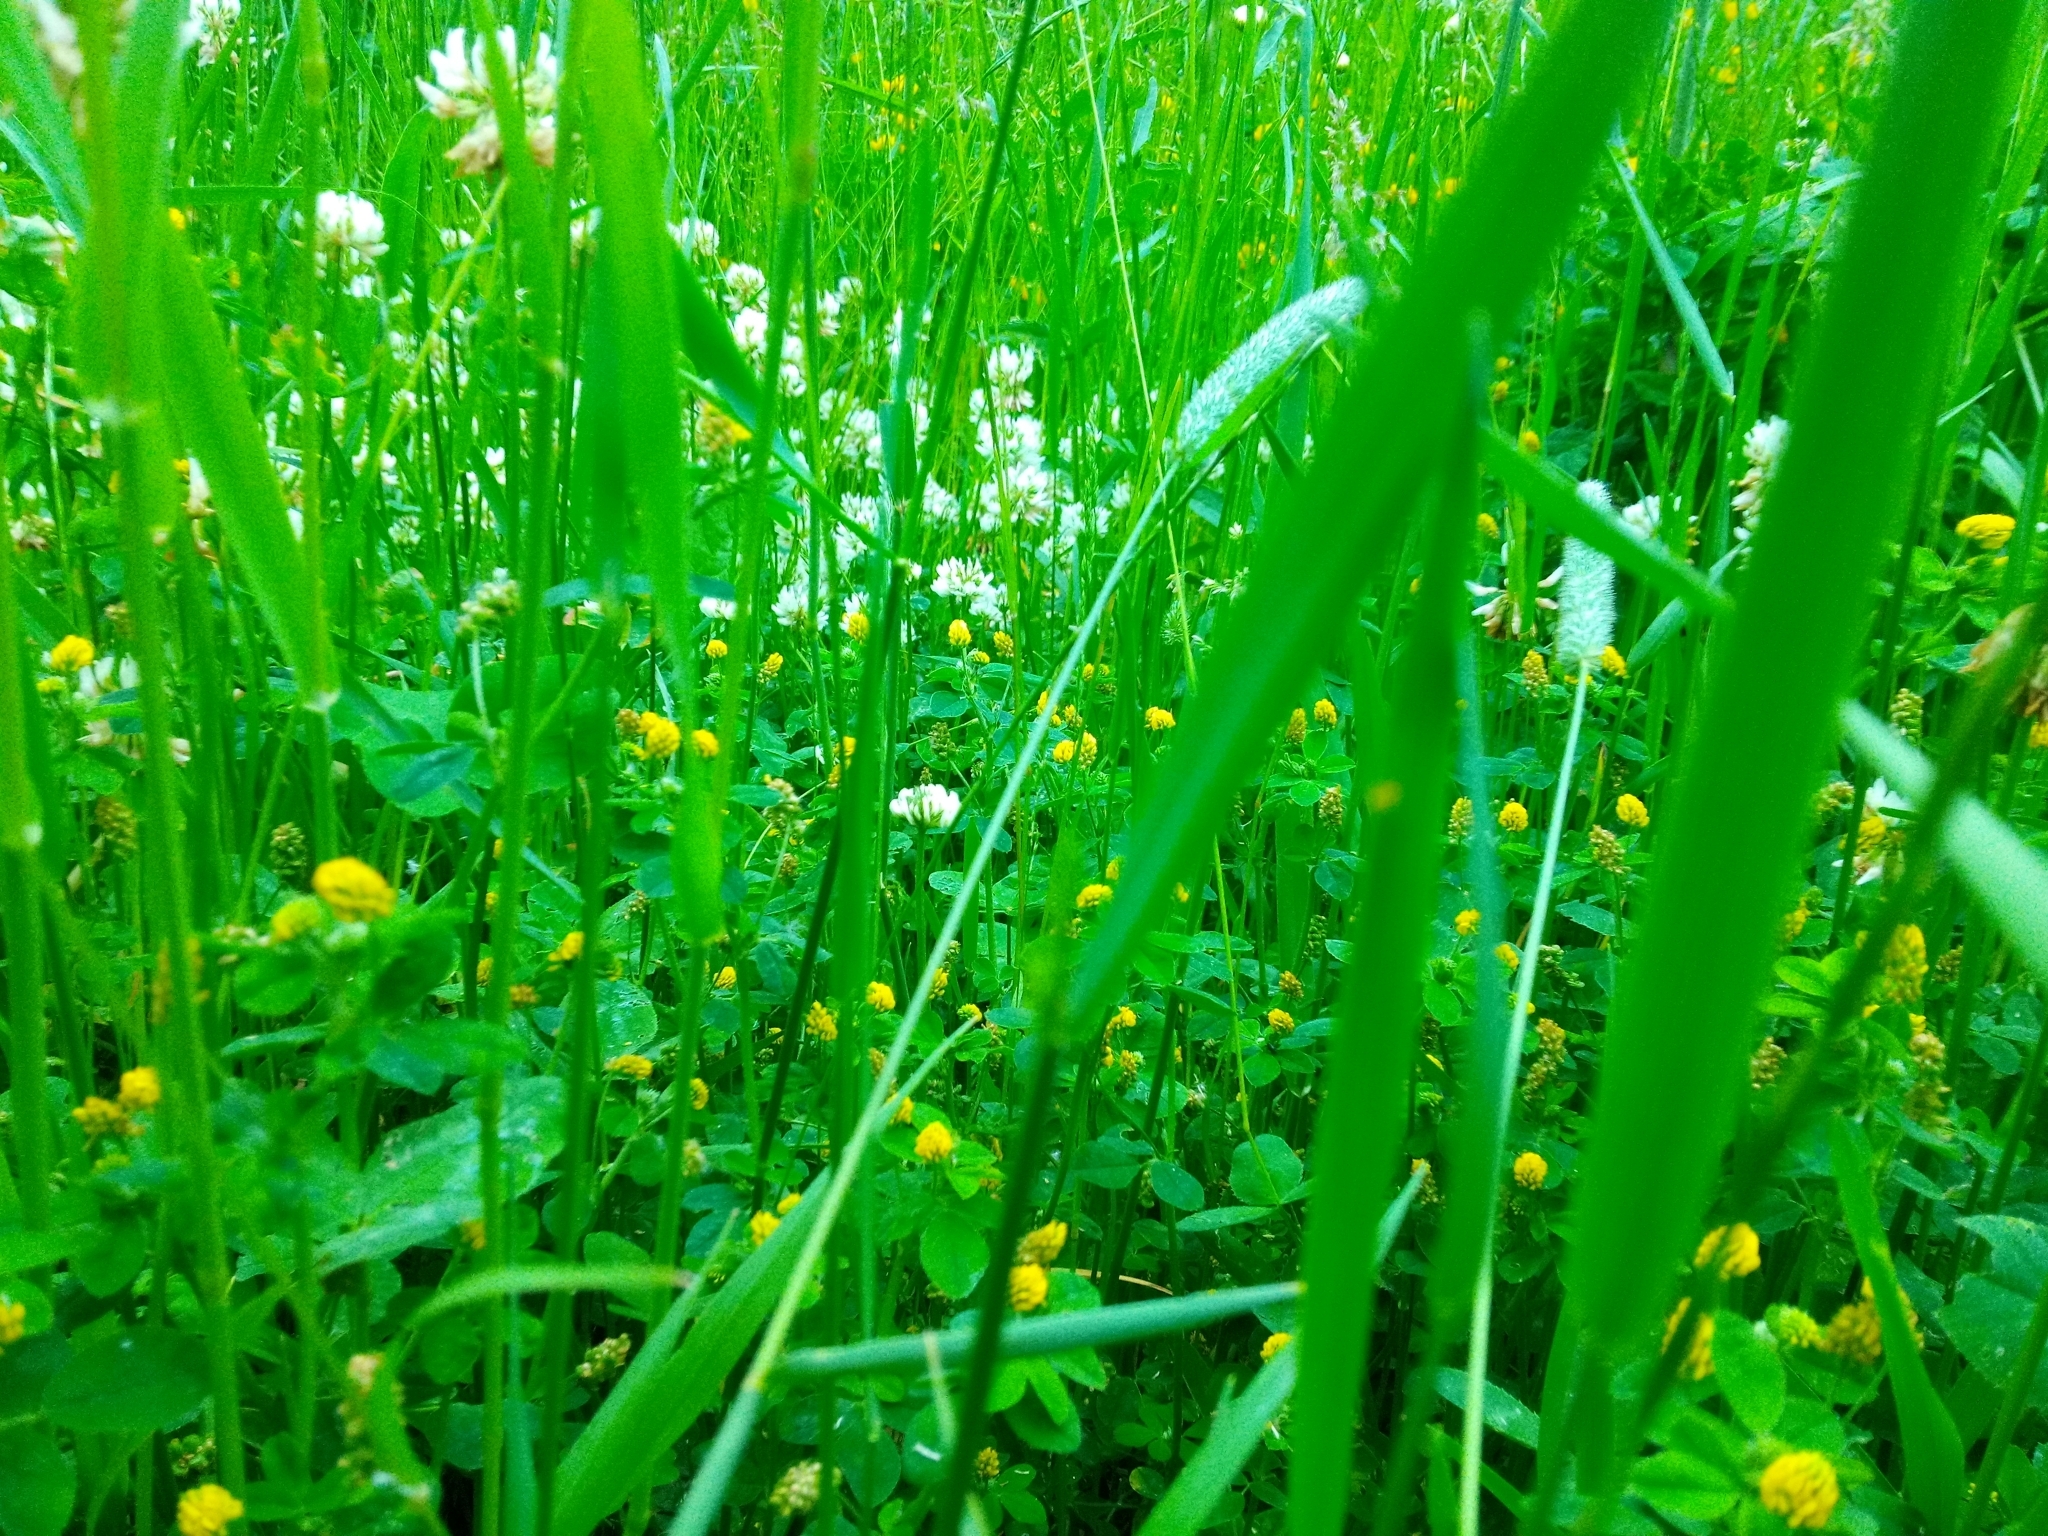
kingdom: Plantae
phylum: Tracheophyta
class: Magnoliopsida
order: Fabales
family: Fabaceae
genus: Medicago
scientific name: Medicago lupulina
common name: Black medick
